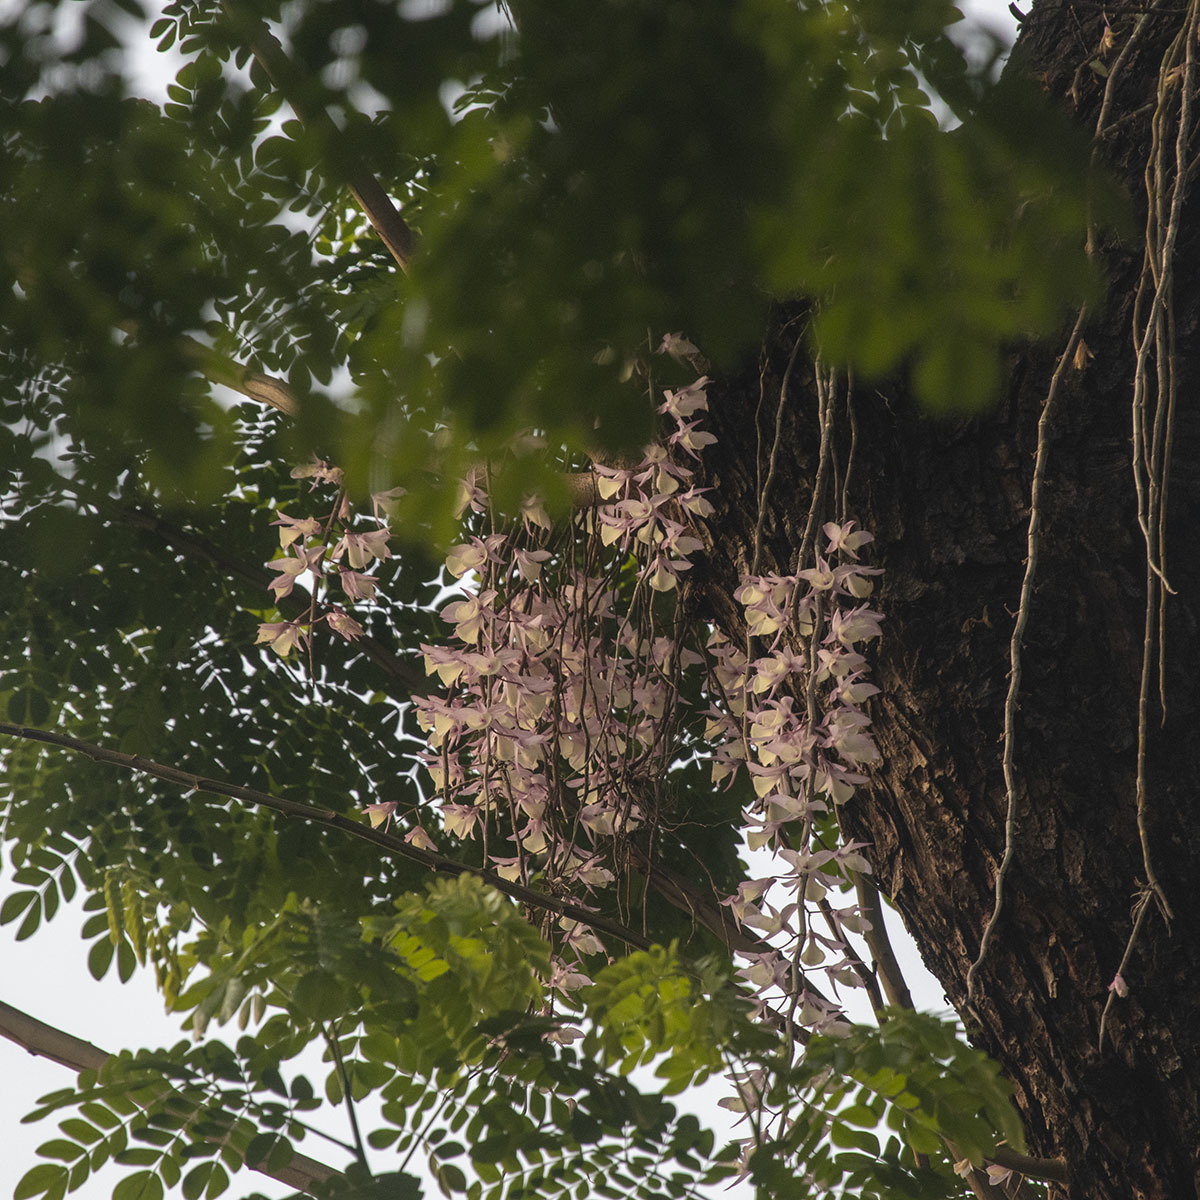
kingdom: Plantae
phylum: Tracheophyta
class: Liliopsida
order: Asparagales
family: Orchidaceae
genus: Dendrobium
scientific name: Dendrobium aphyllum
